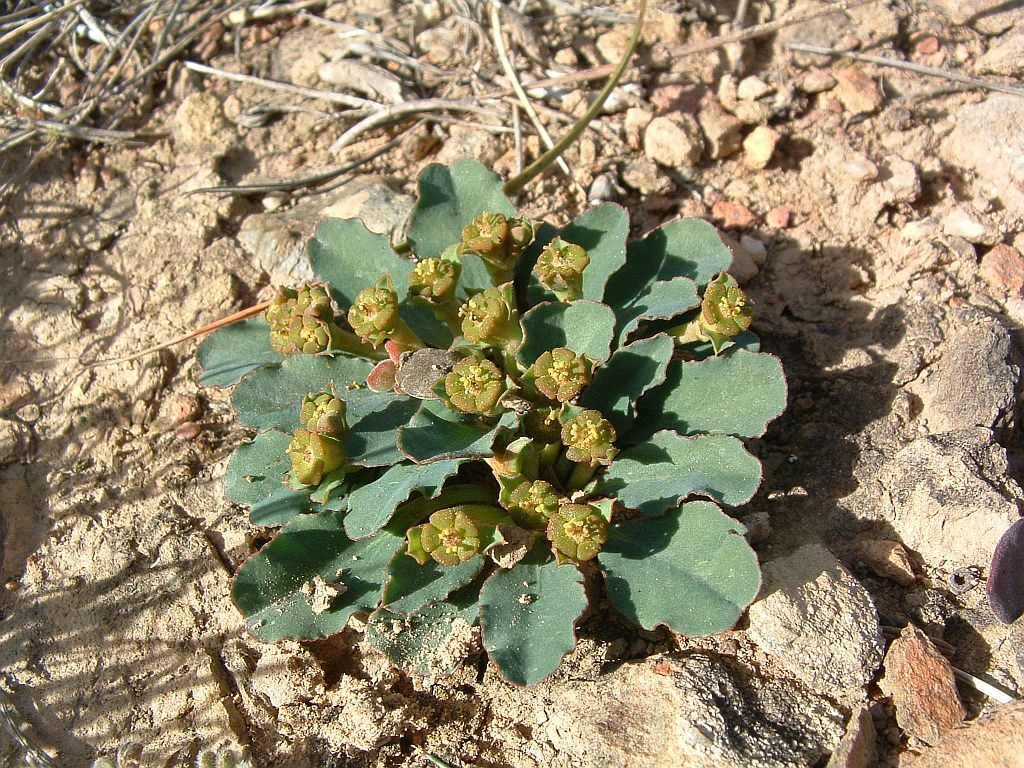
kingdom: Plantae
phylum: Tracheophyta
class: Magnoliopsida
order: Malpighiales
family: Euphorbiaceae
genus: Euphorbia
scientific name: Euphorbia tuberosa
